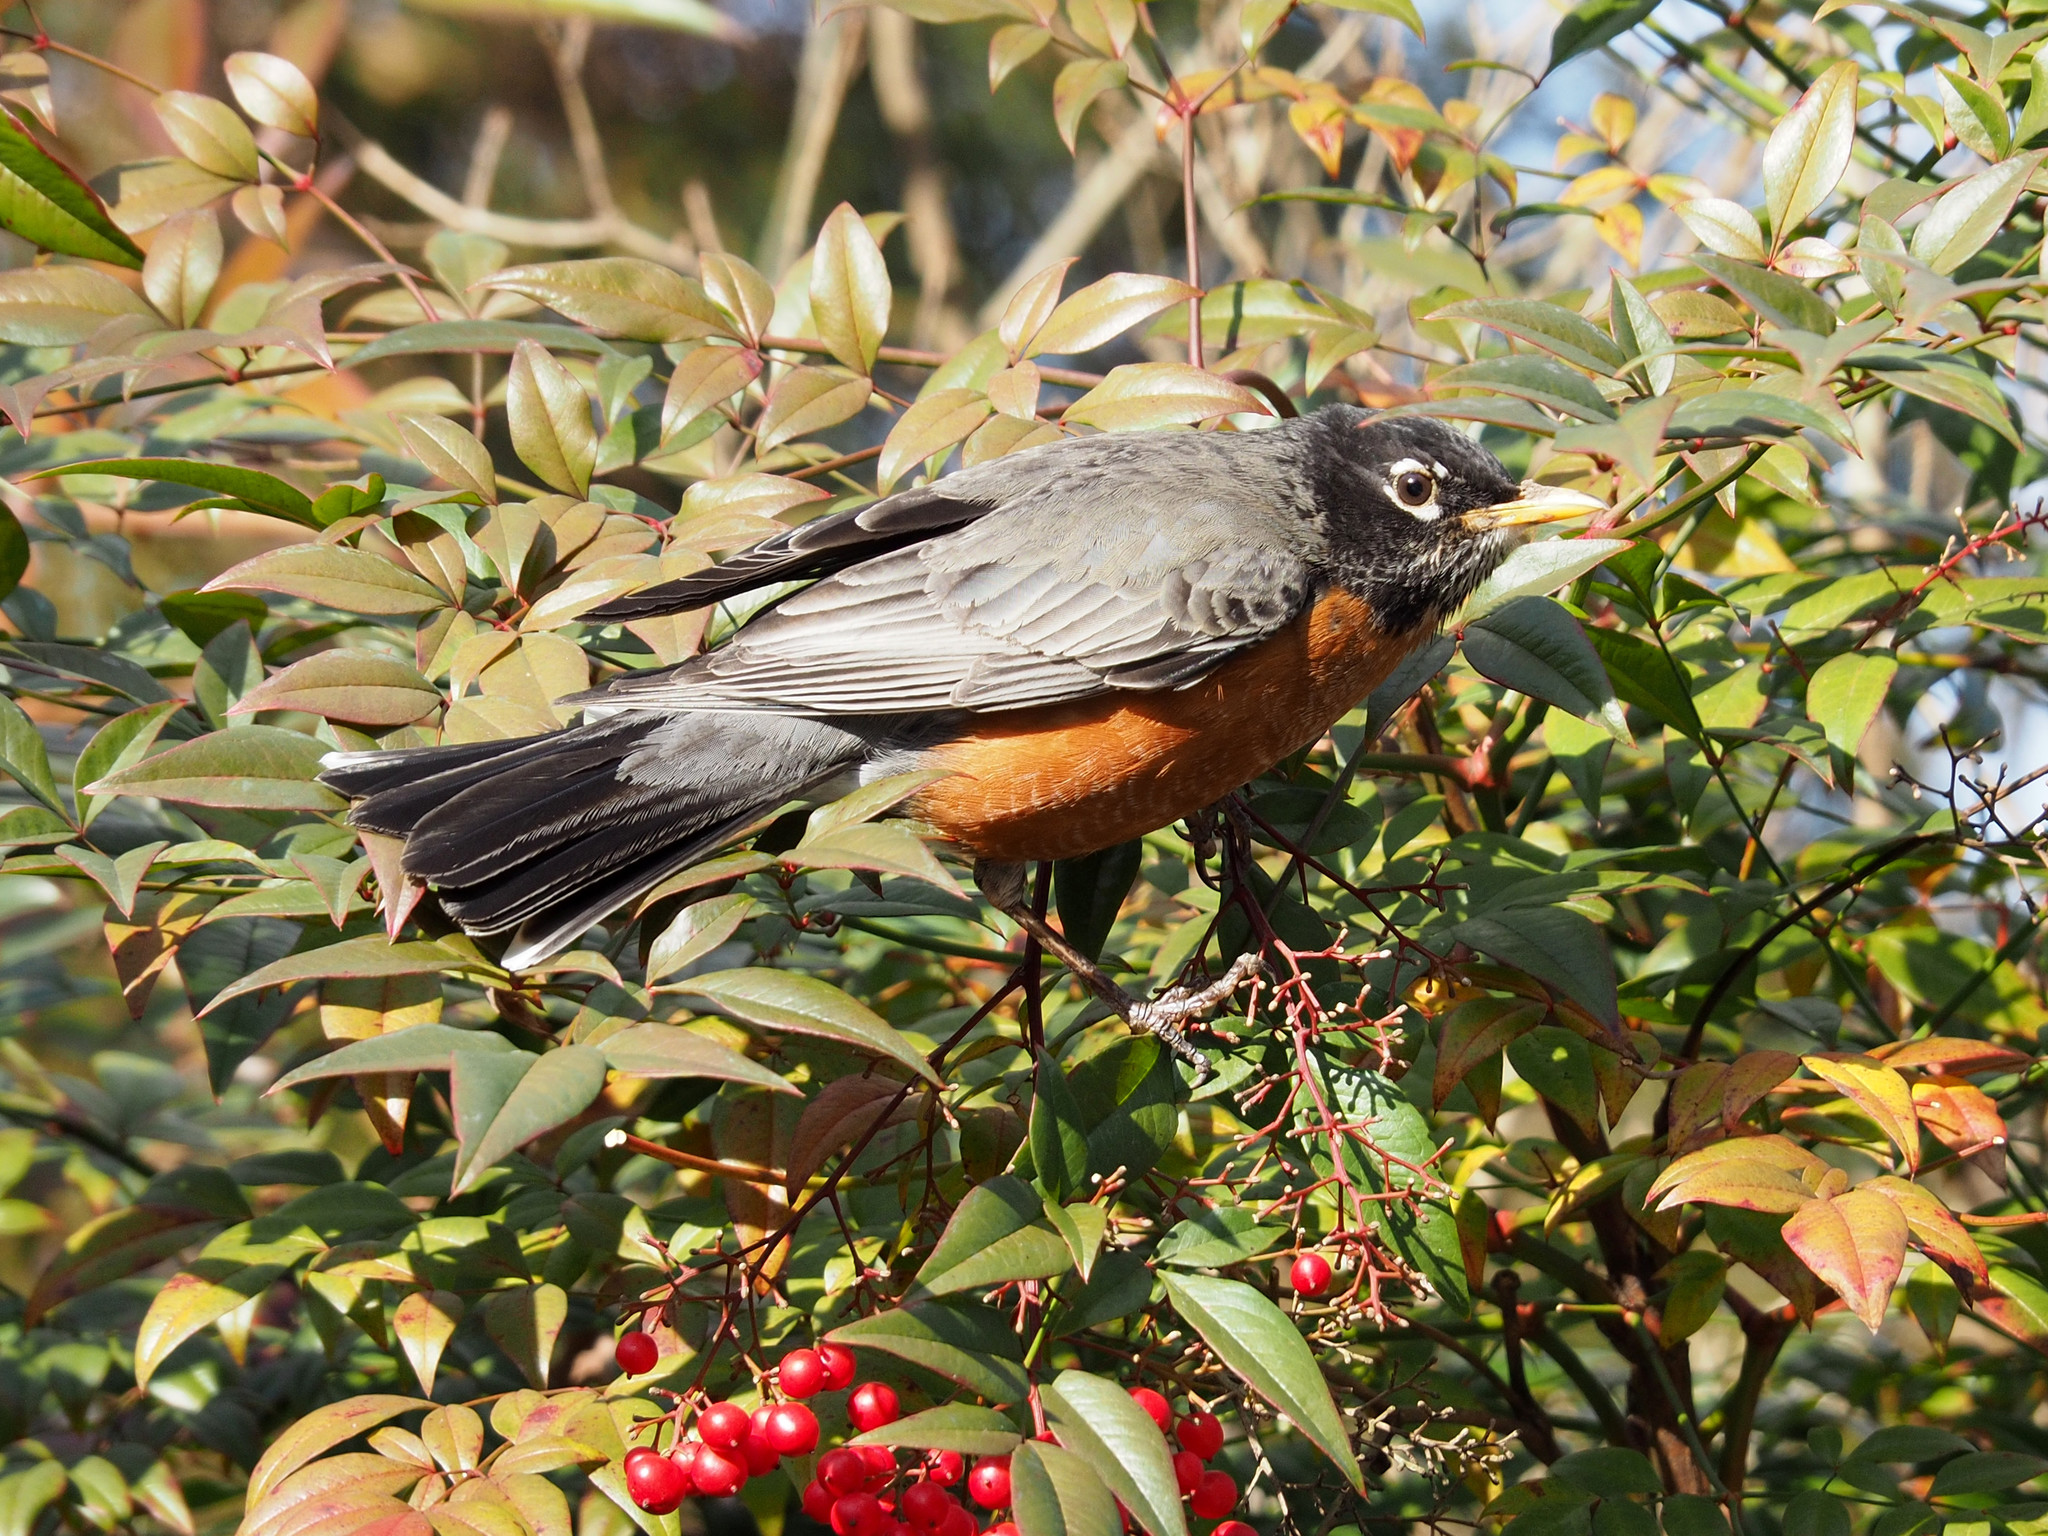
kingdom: Animalia
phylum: Chordata
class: Aves
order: Passeriformes
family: Turdidae
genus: Turdus
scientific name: Turdus migratorius
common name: American robin
